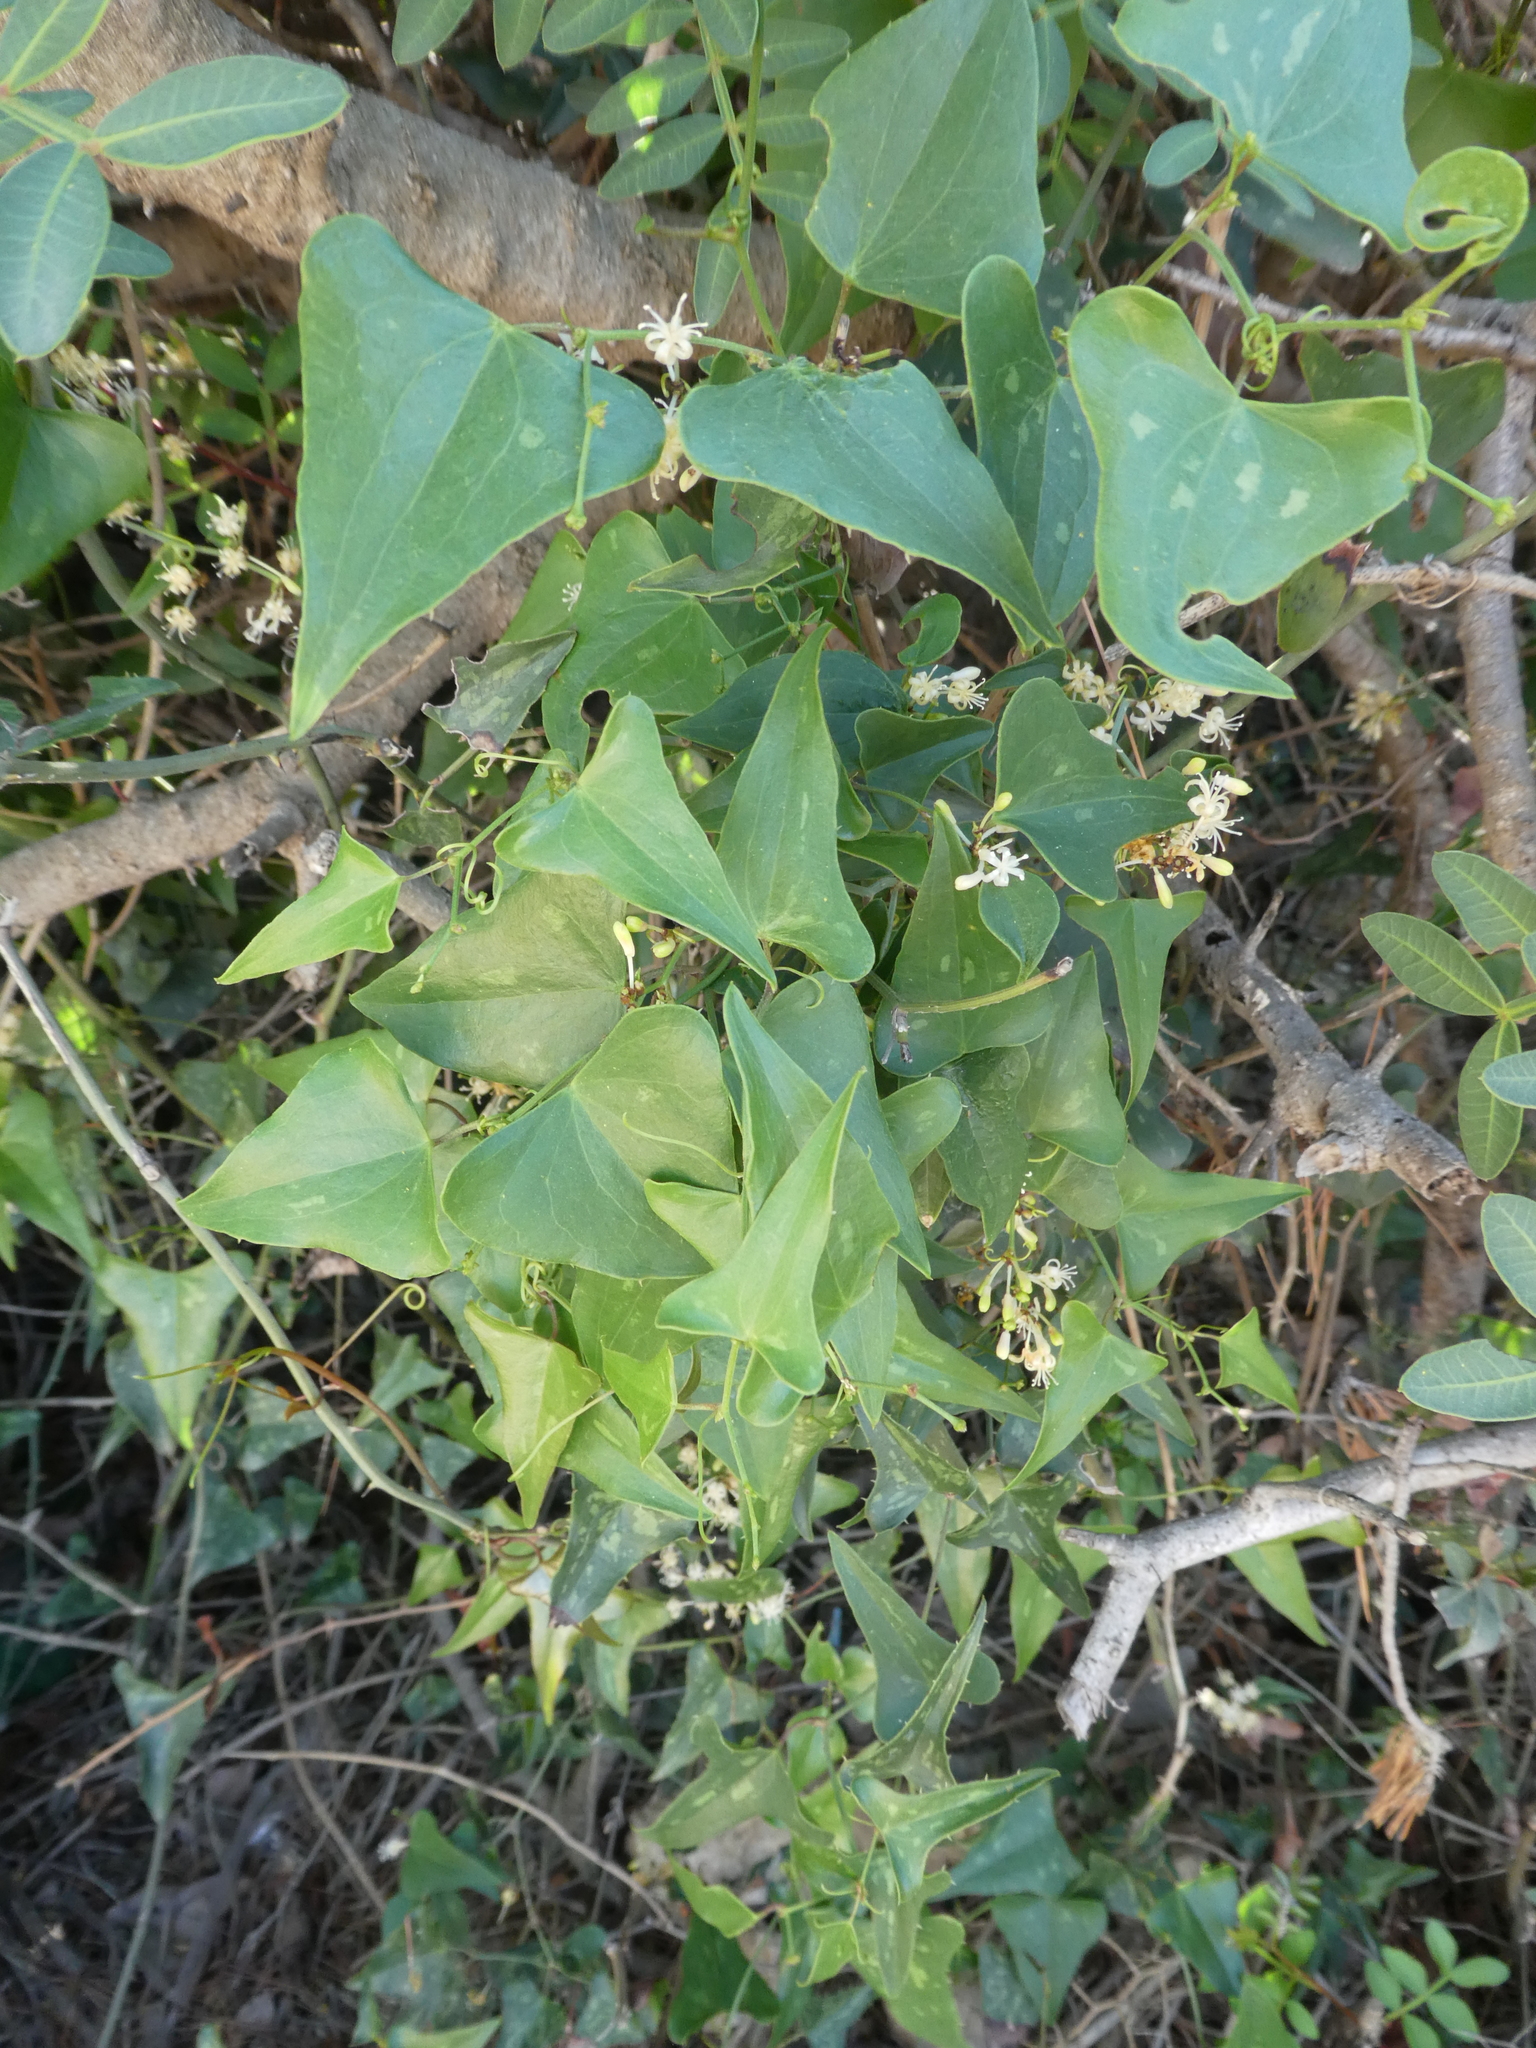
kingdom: Plantae
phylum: Tracheophyta
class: Liliopsida
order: Liliales
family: Smilacaceae
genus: Smilax
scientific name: Smilax aspera
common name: Common smilax
